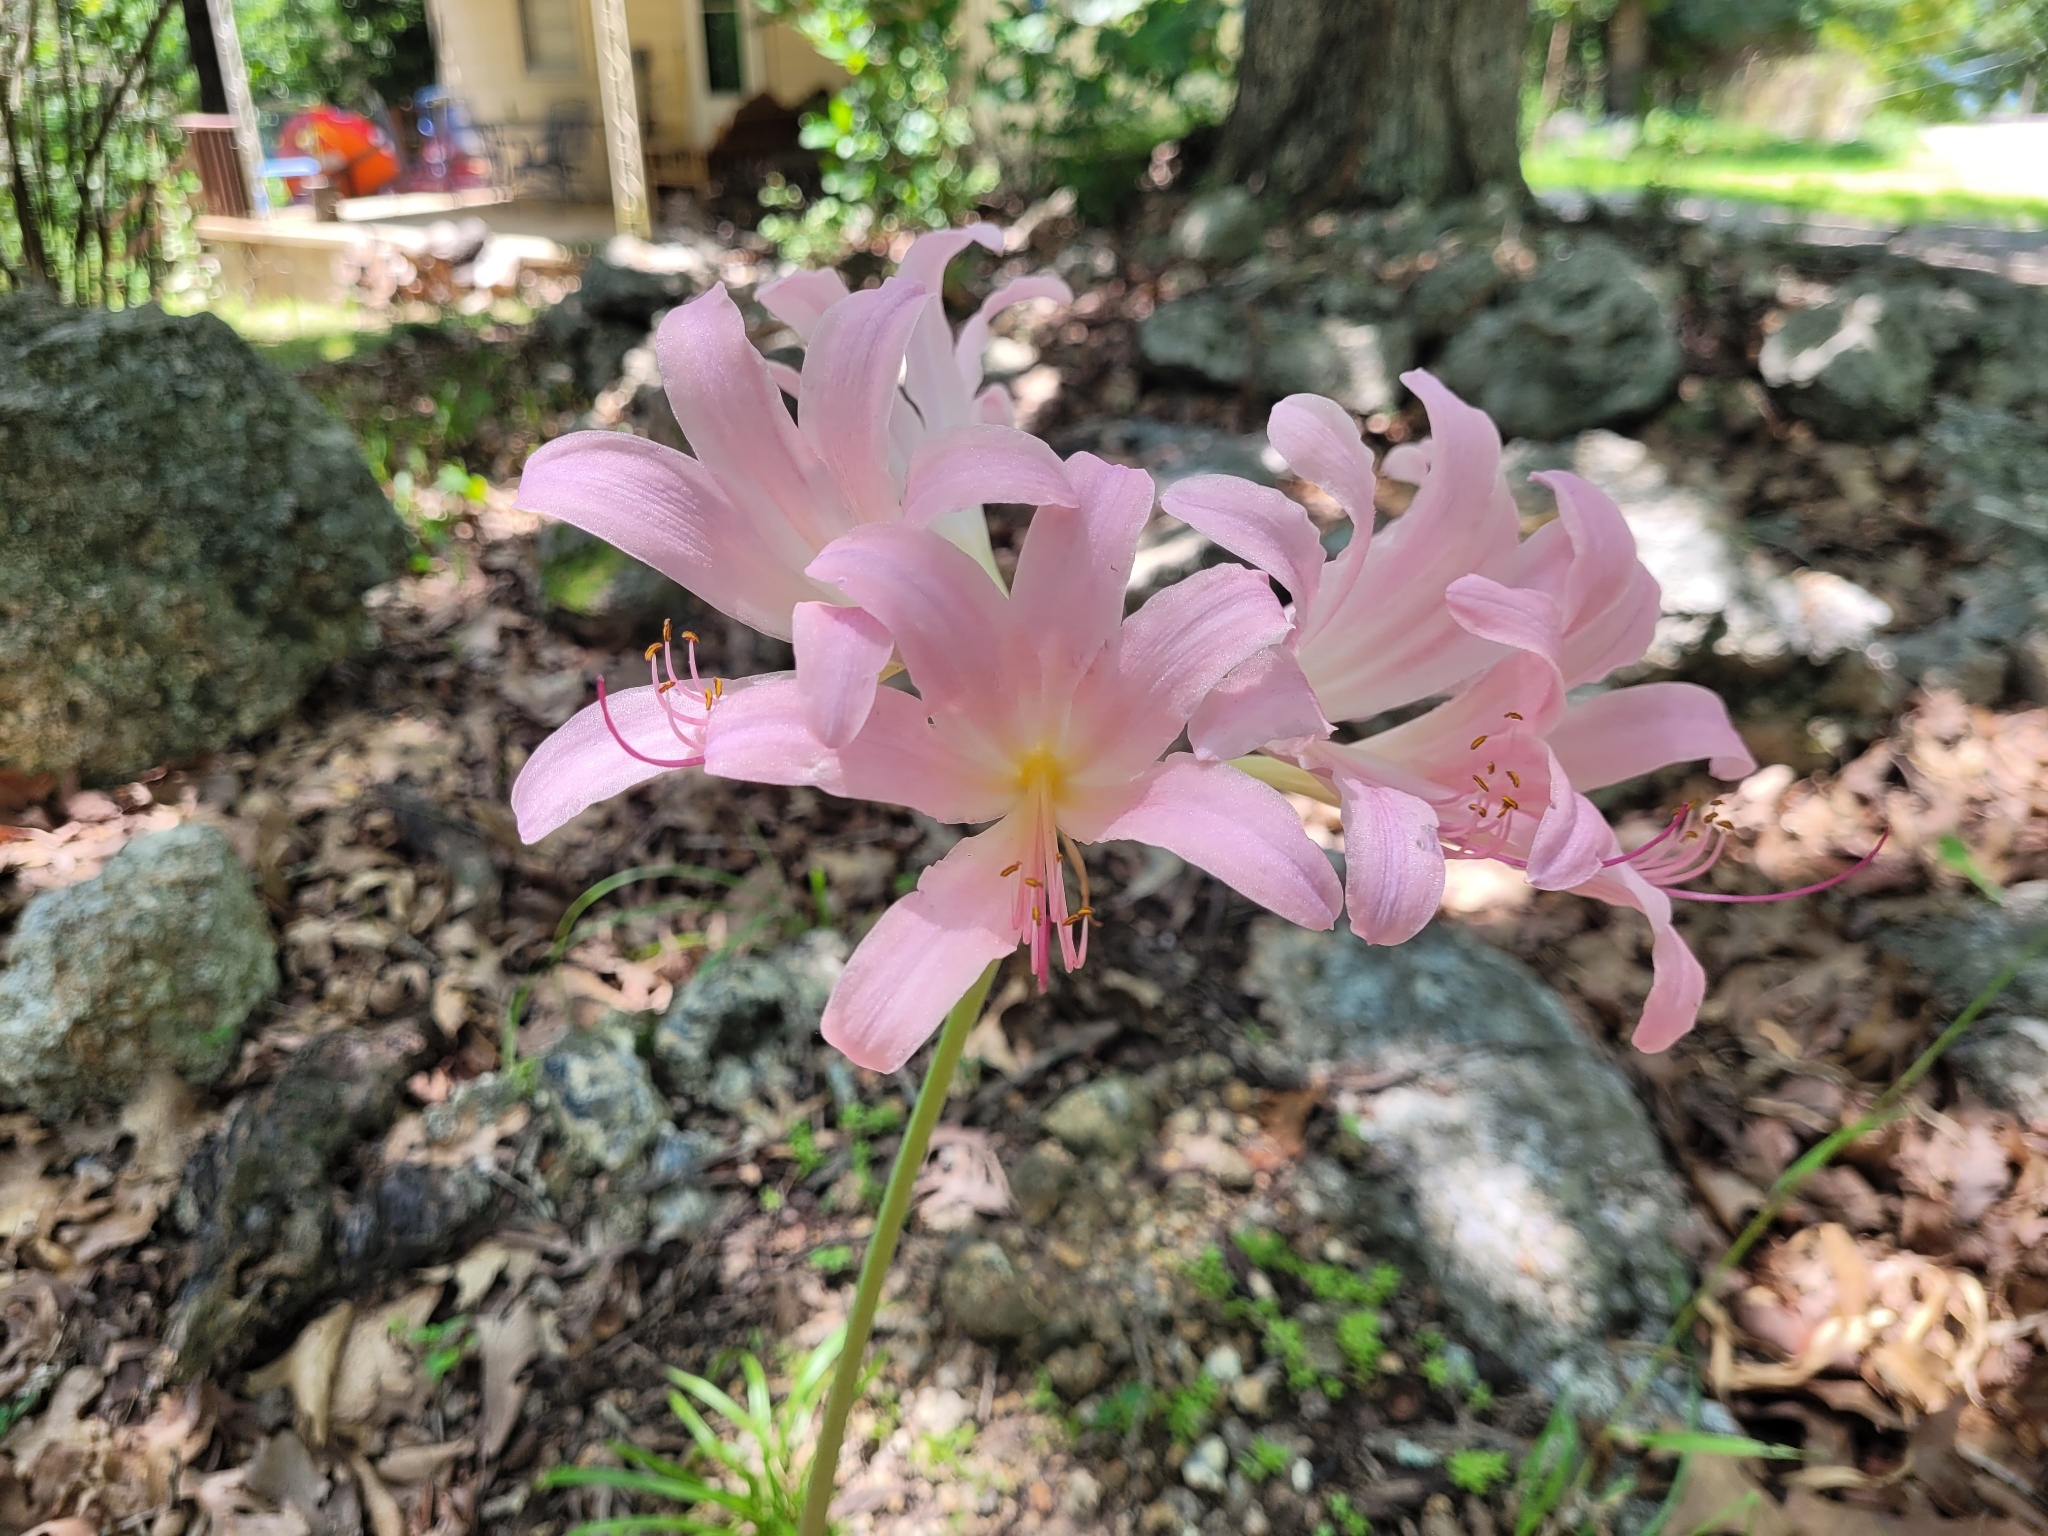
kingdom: Plantae
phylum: Tracheophyta
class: Liliopsida
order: Asparagales
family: Amaryllidaceae
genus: Lycoris
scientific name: Lycoris squamigera
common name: Magic-lily
